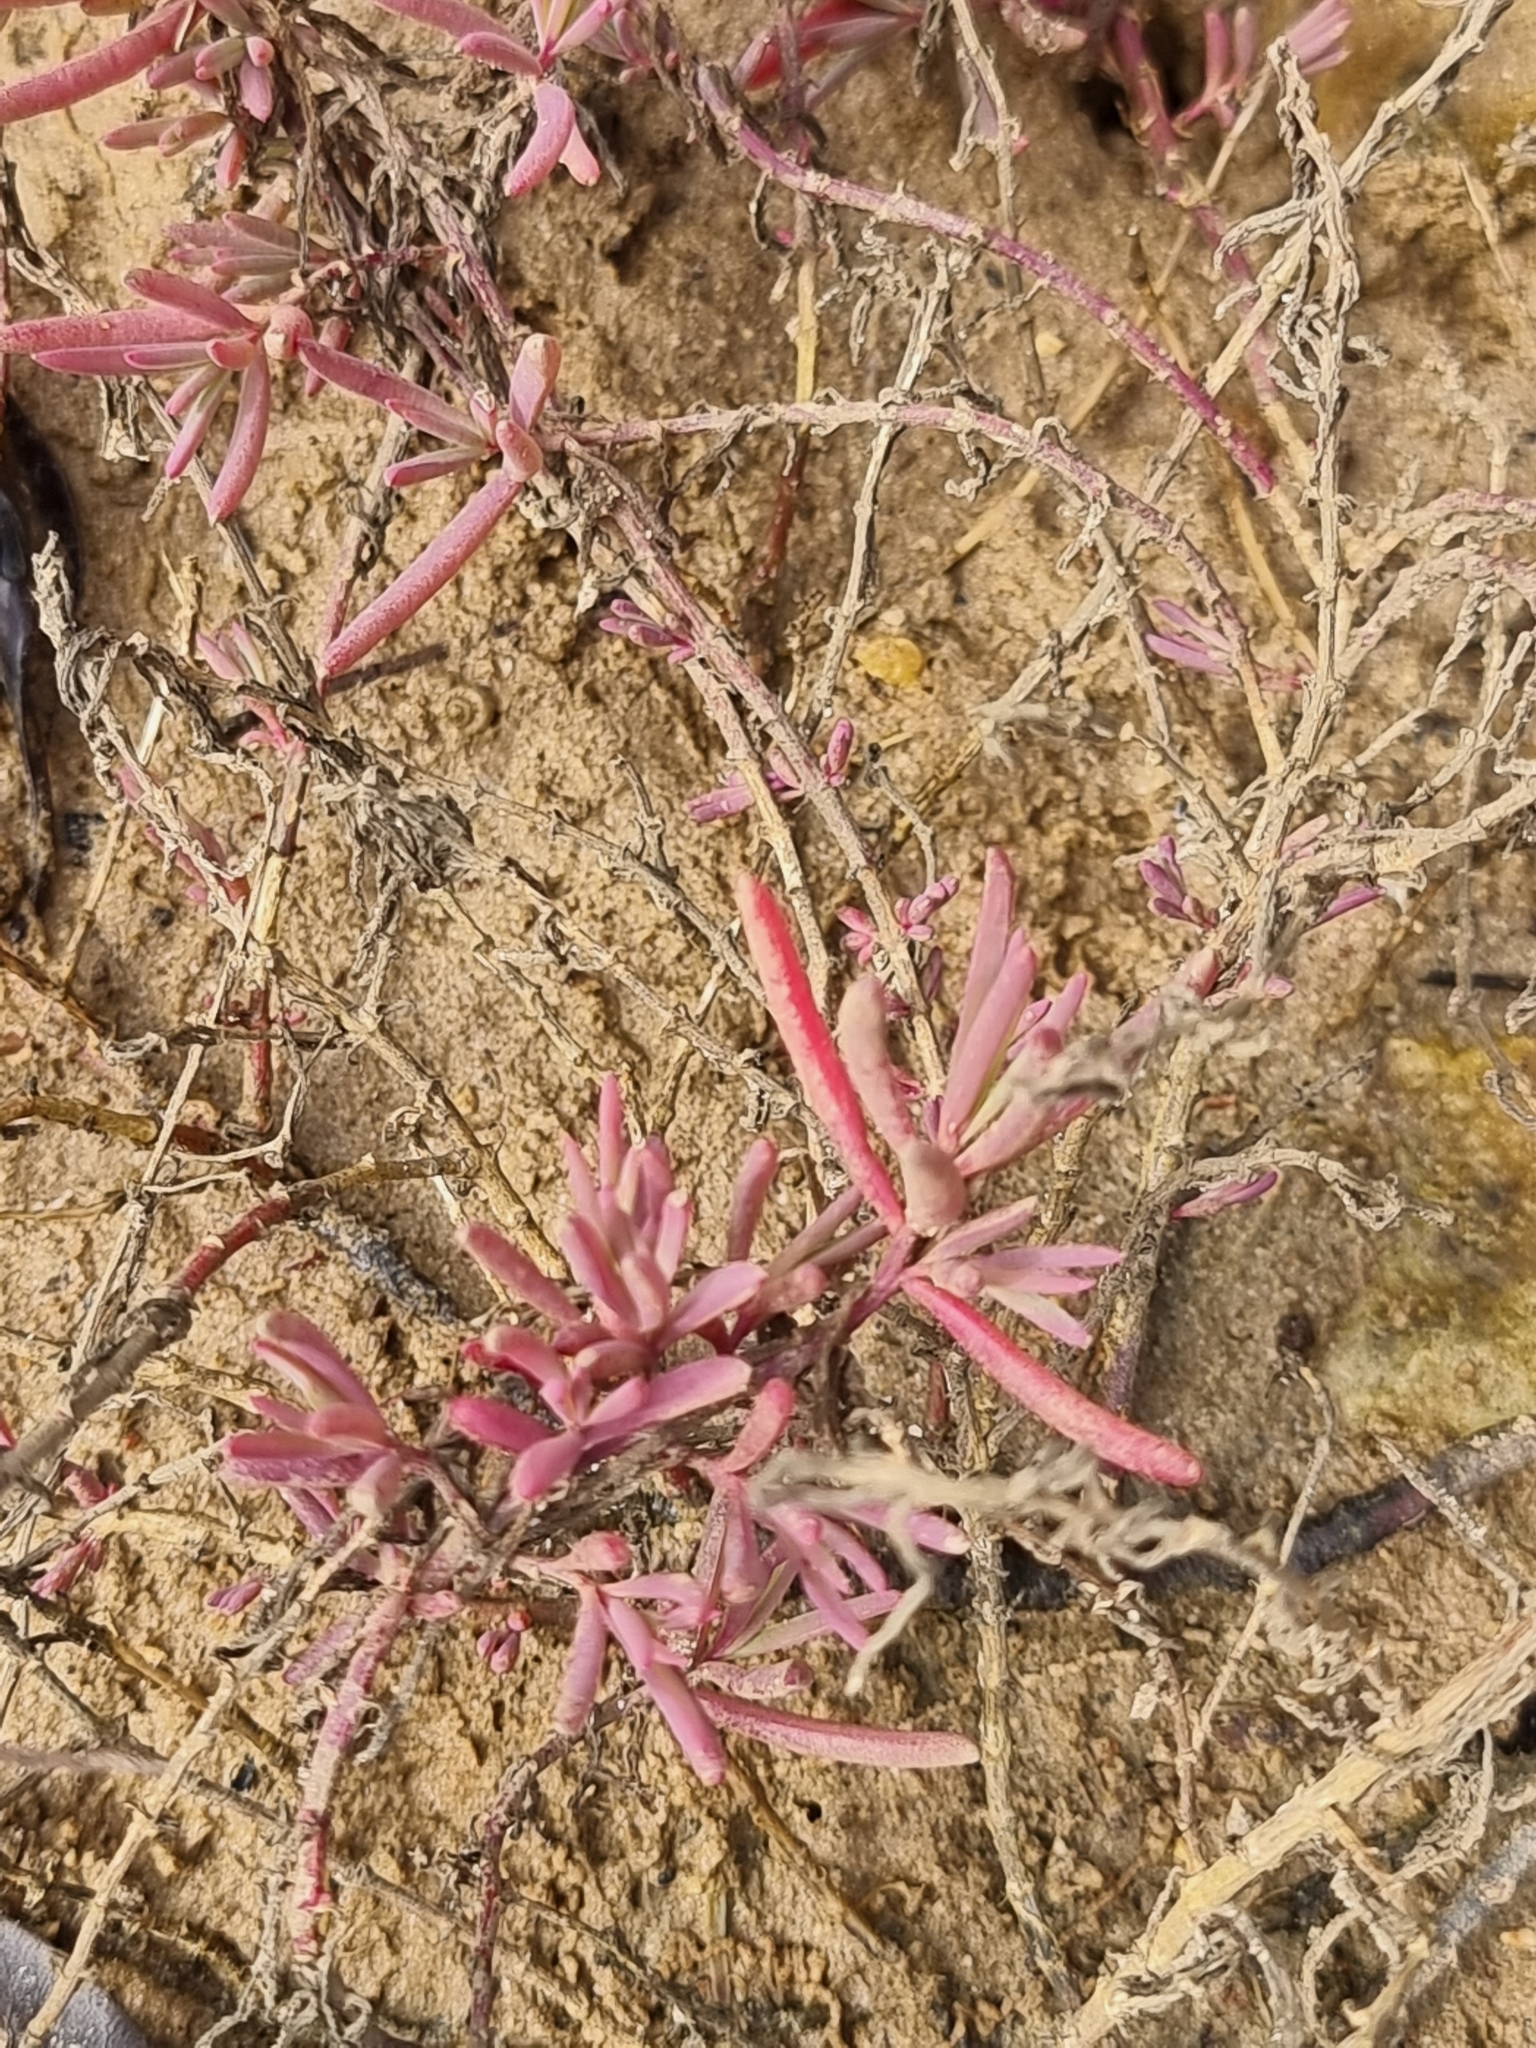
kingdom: Plantae
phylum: Tracheophyta
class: Magnoliopsida
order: Caryophyllales
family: Amaranthaceae
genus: Suaeda
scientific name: Suaeda arbusculoides
